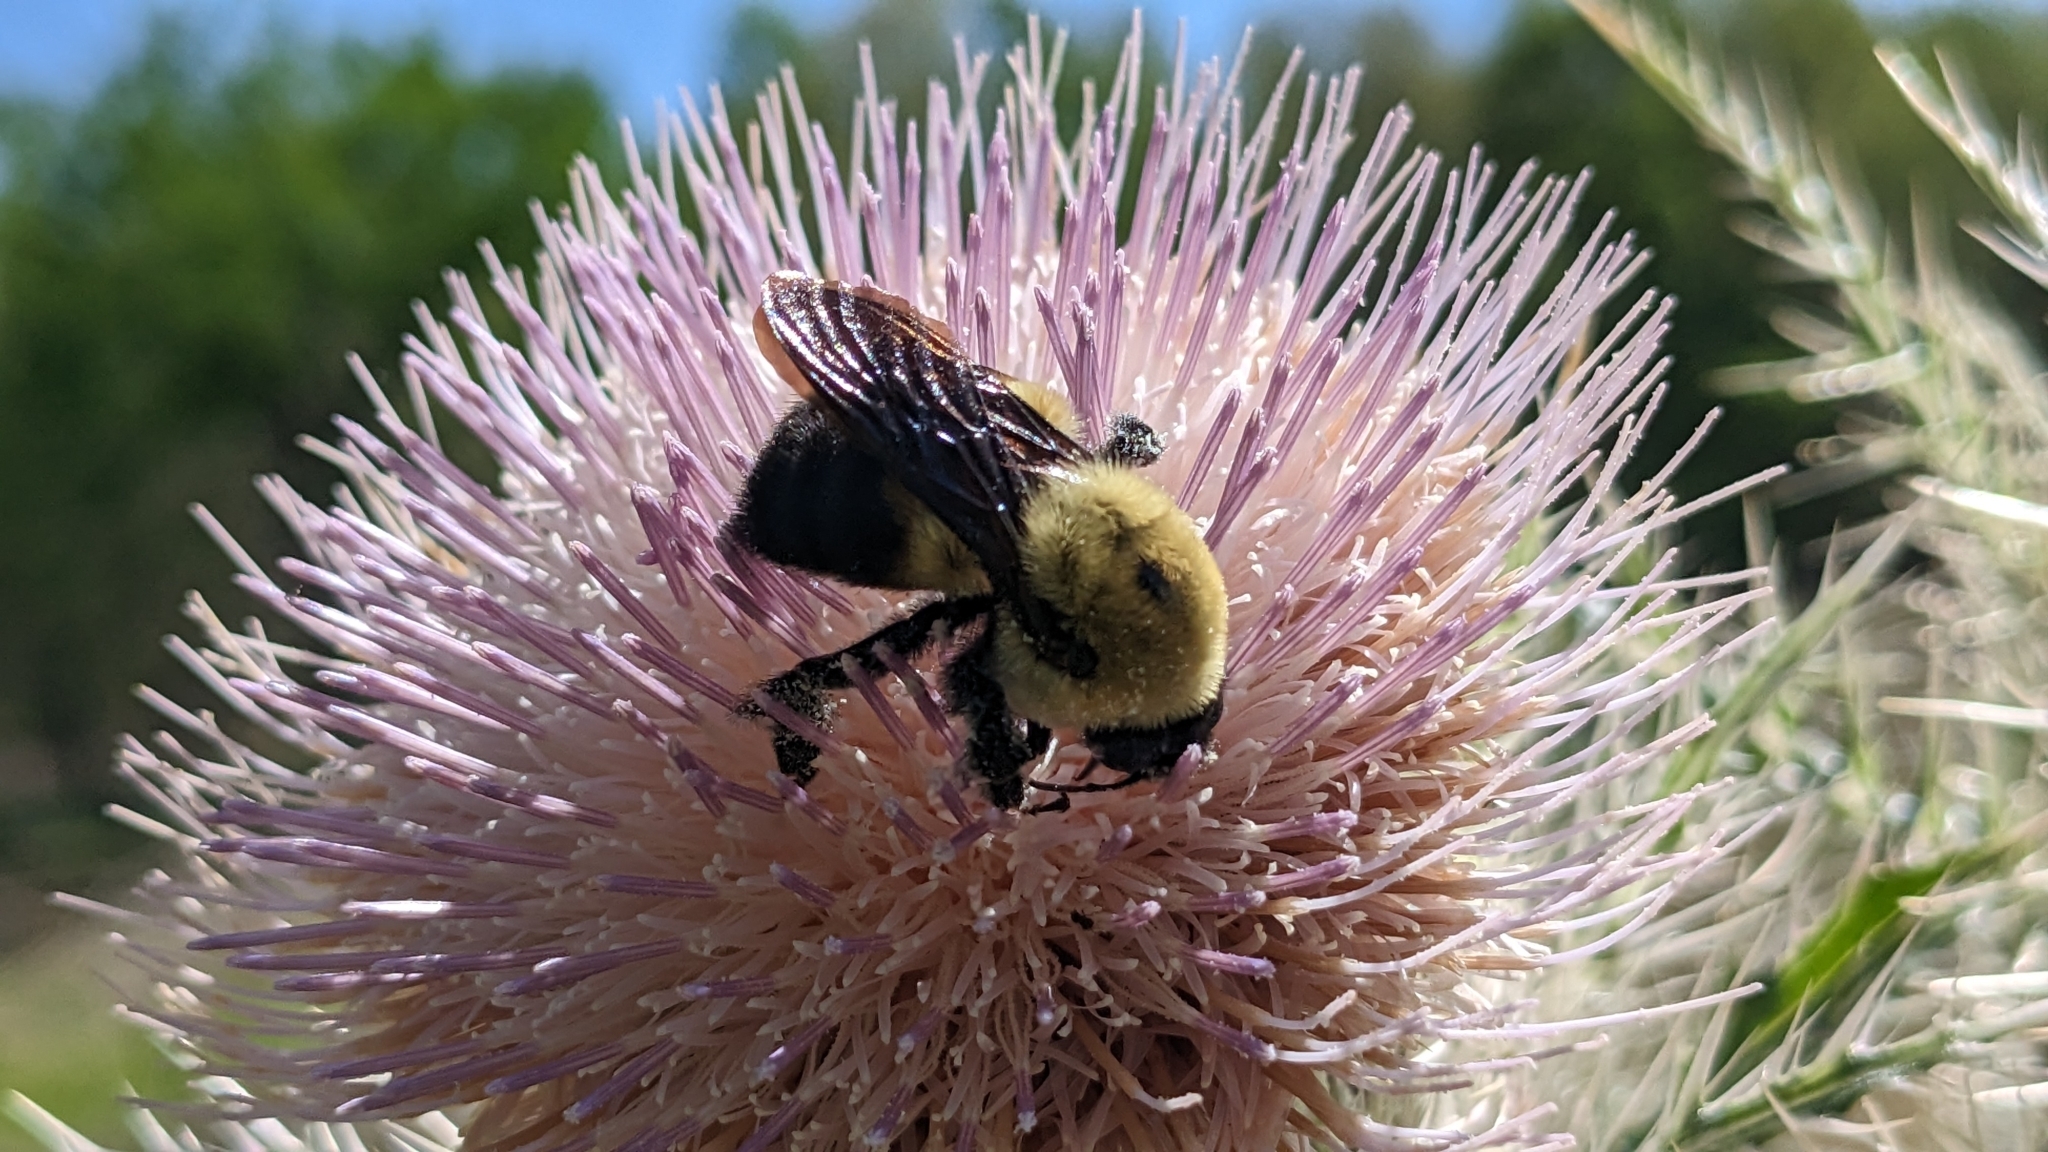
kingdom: Animalia
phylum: Arthropoda
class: Insecta
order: Hymenoptera
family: Apidae
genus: Bombus
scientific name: Bombus griseocollis
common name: Brown-belted bumble bee
